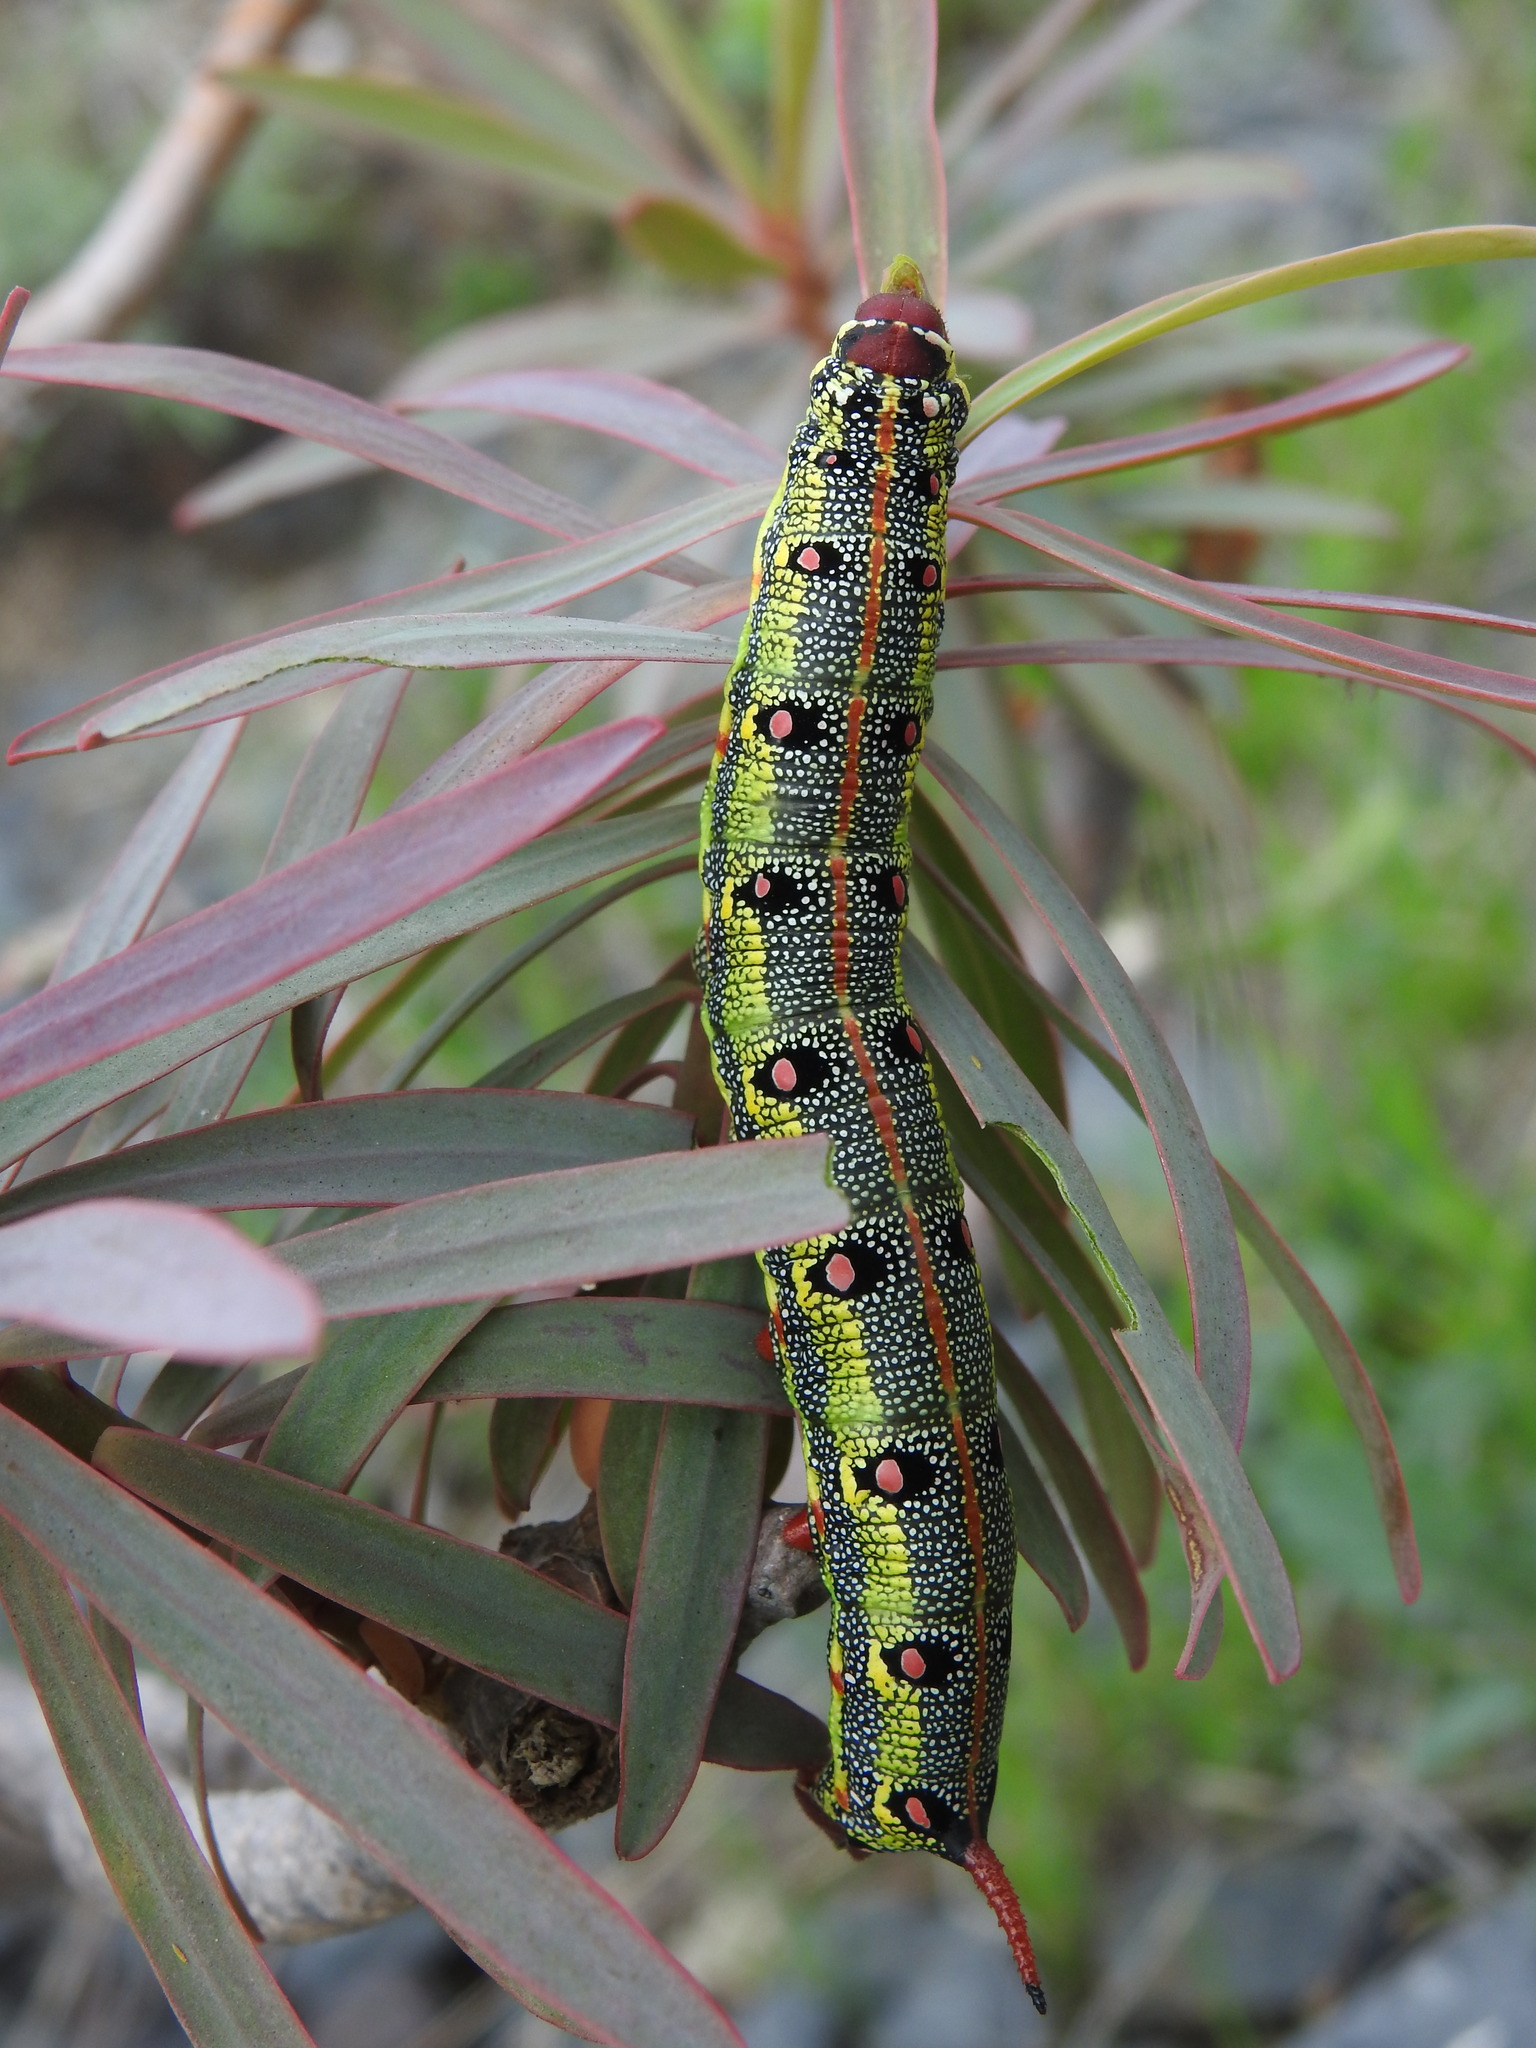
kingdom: Animalia
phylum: Arthropoda
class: Insecta
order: Lepidoptera
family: Sphingidae
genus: Hyles
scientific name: Hyles tithymali
